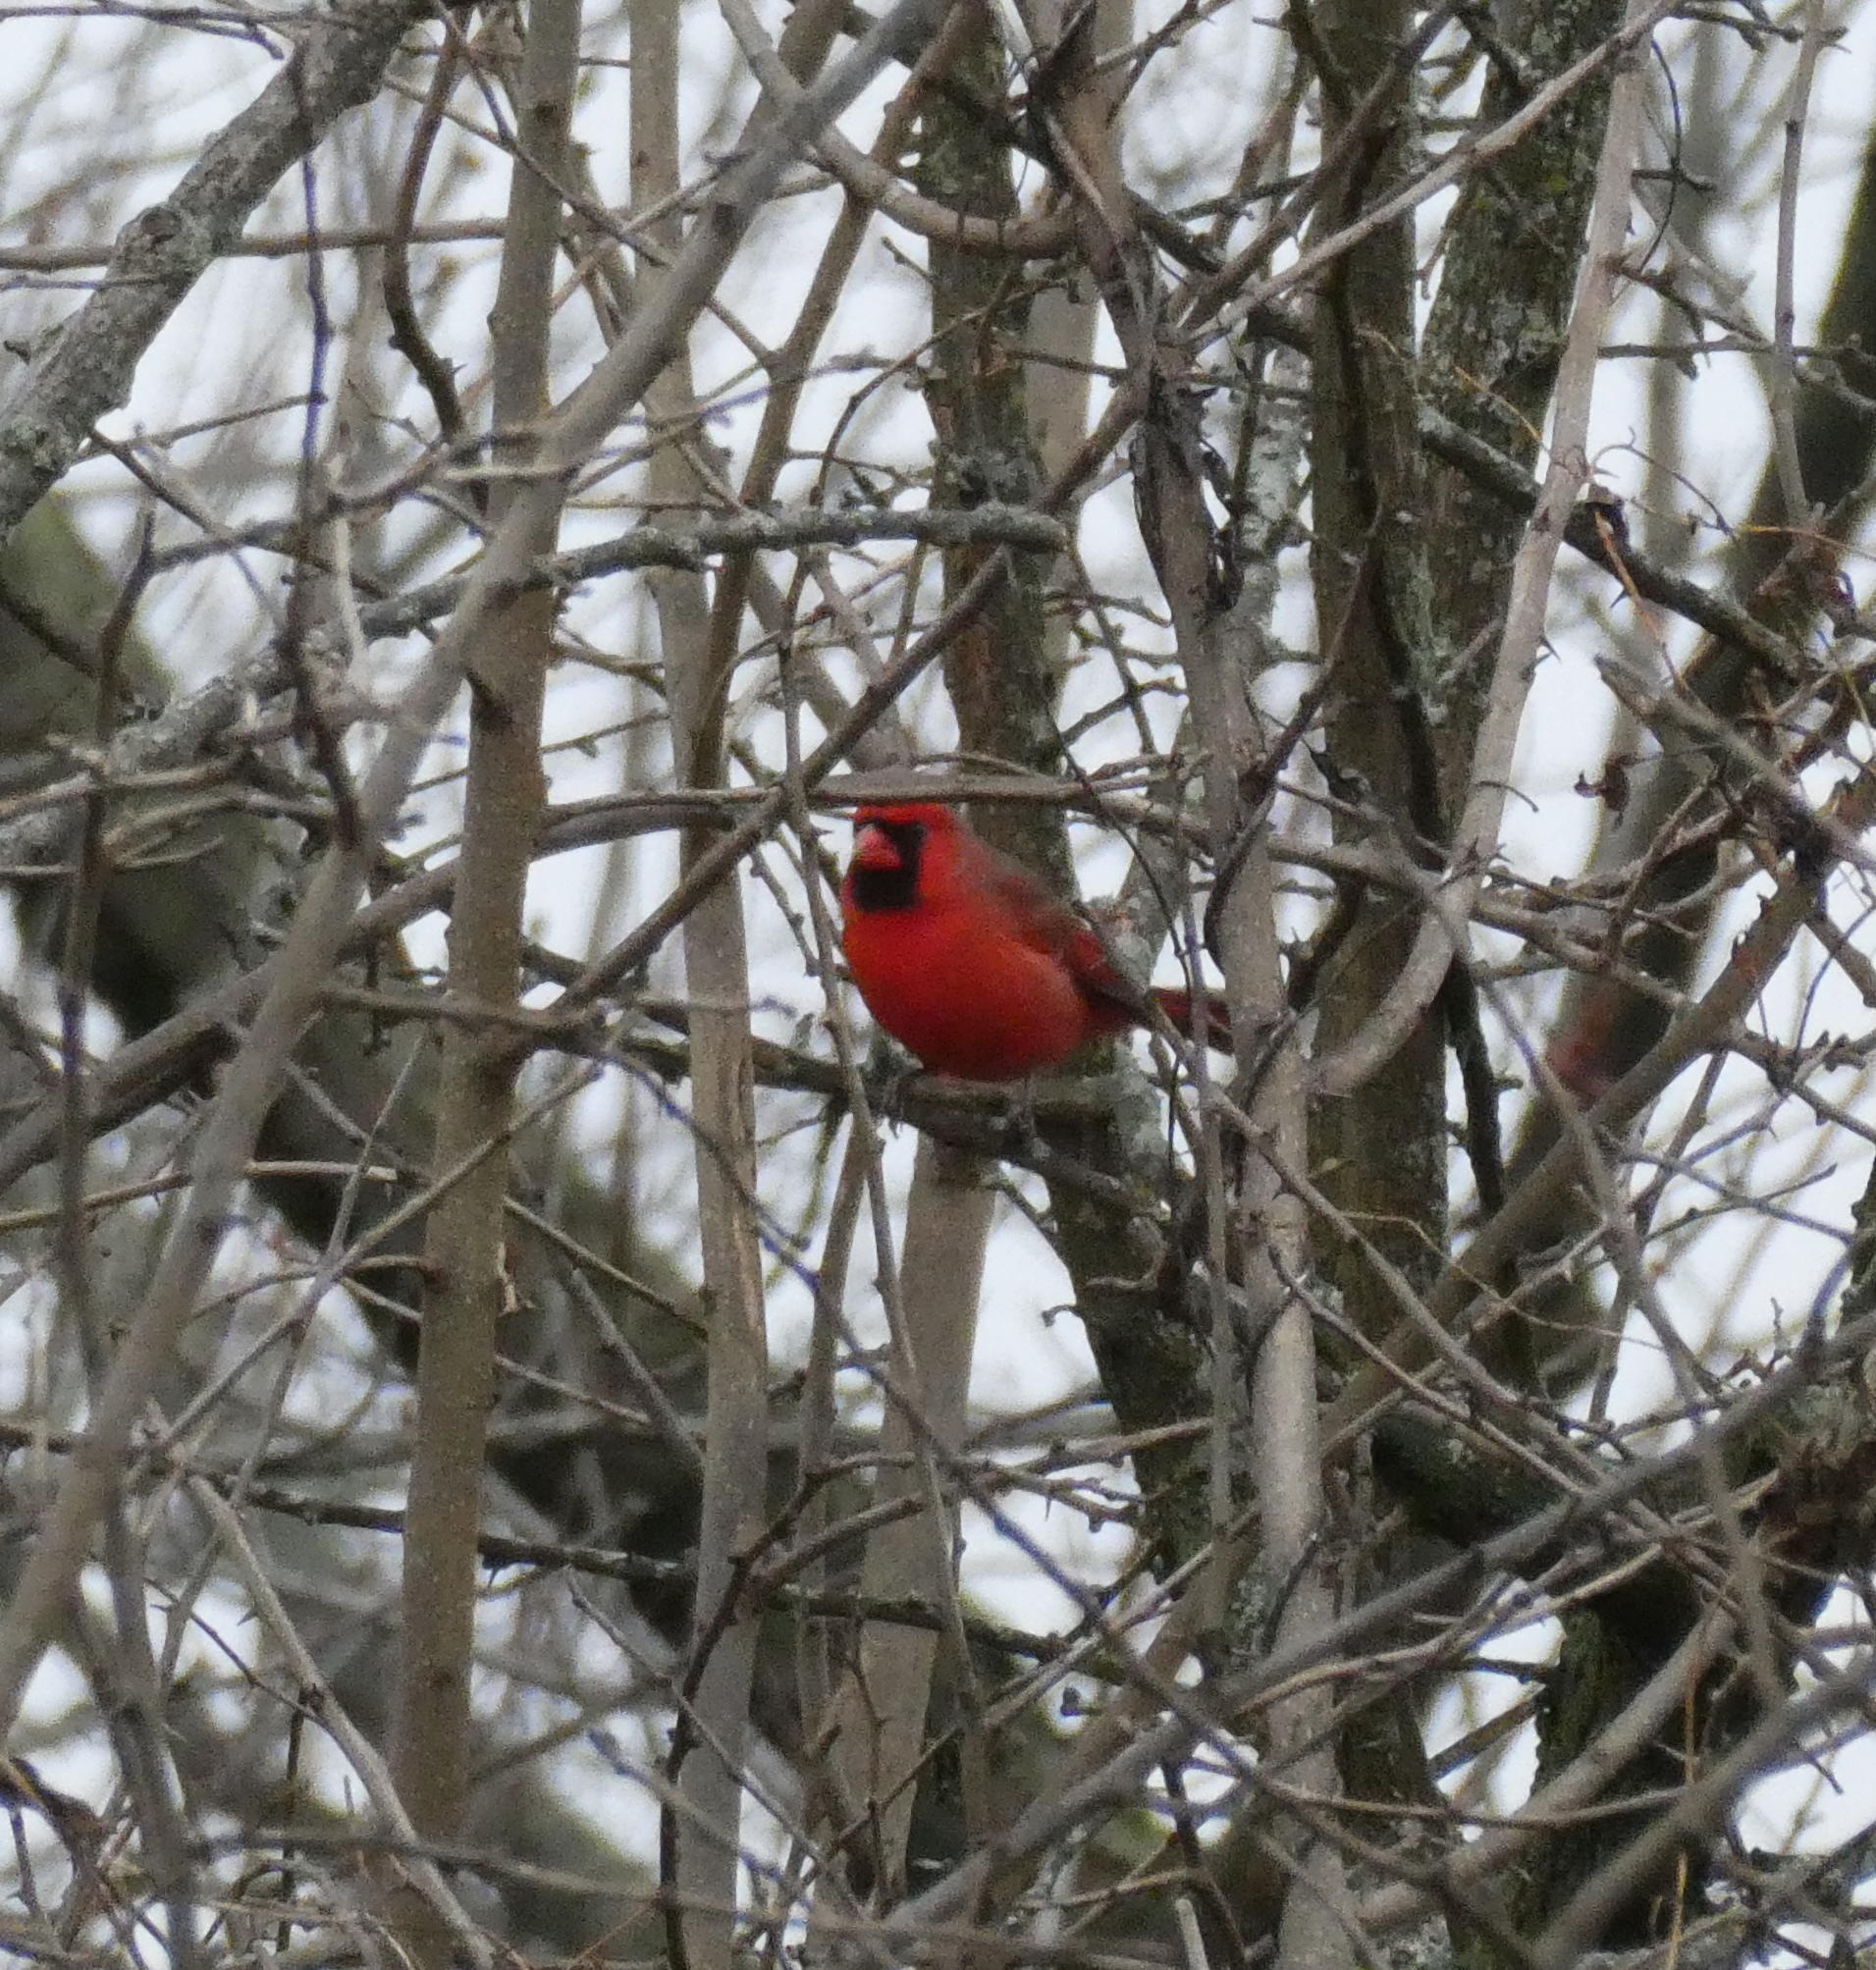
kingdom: Animalia
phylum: Chordata
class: Aves
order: Passeriformes
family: Cardinalidae
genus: Cardinalis
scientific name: Cardinalis cardinalis
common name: Northern cardinal
